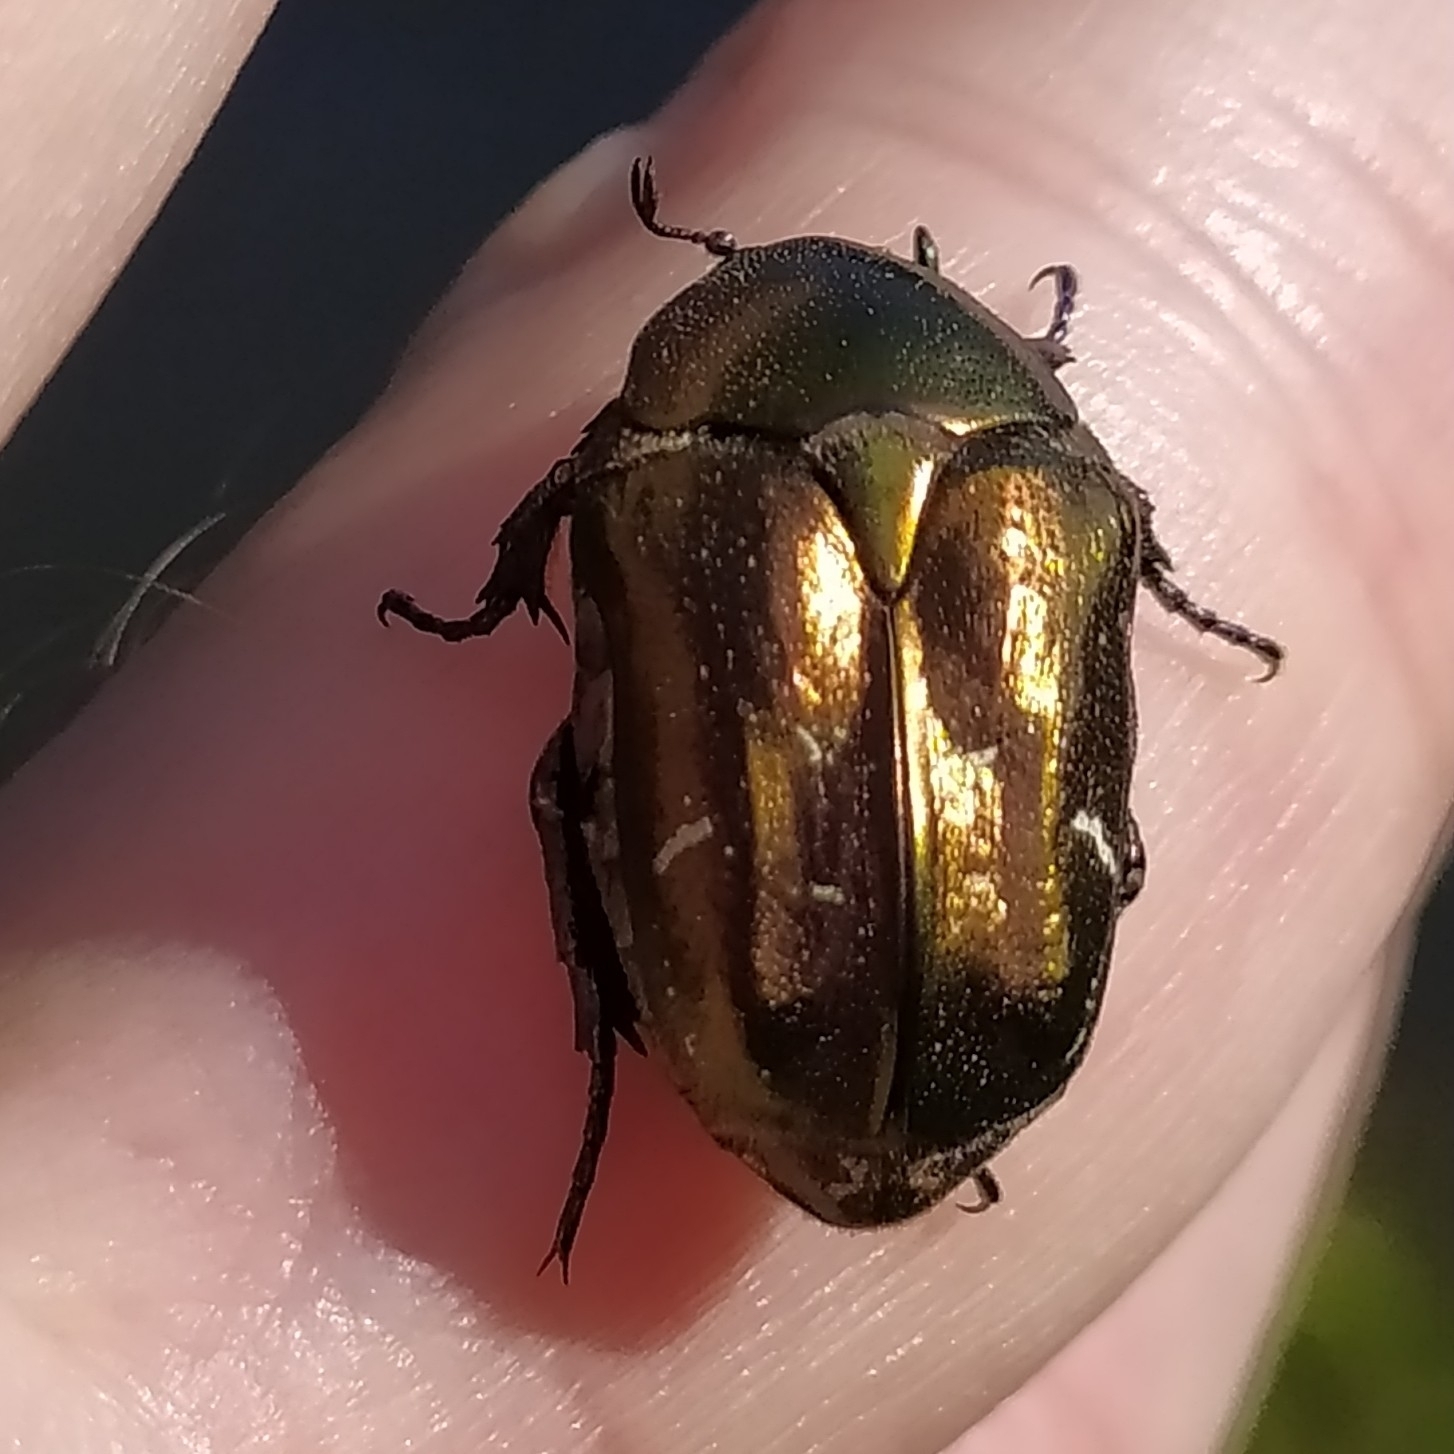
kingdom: Animalia
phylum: Arthropoda
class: Insecta
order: Coleoptera
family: Scarabaeidae
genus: Protaetia
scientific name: Protaetia cuprea
